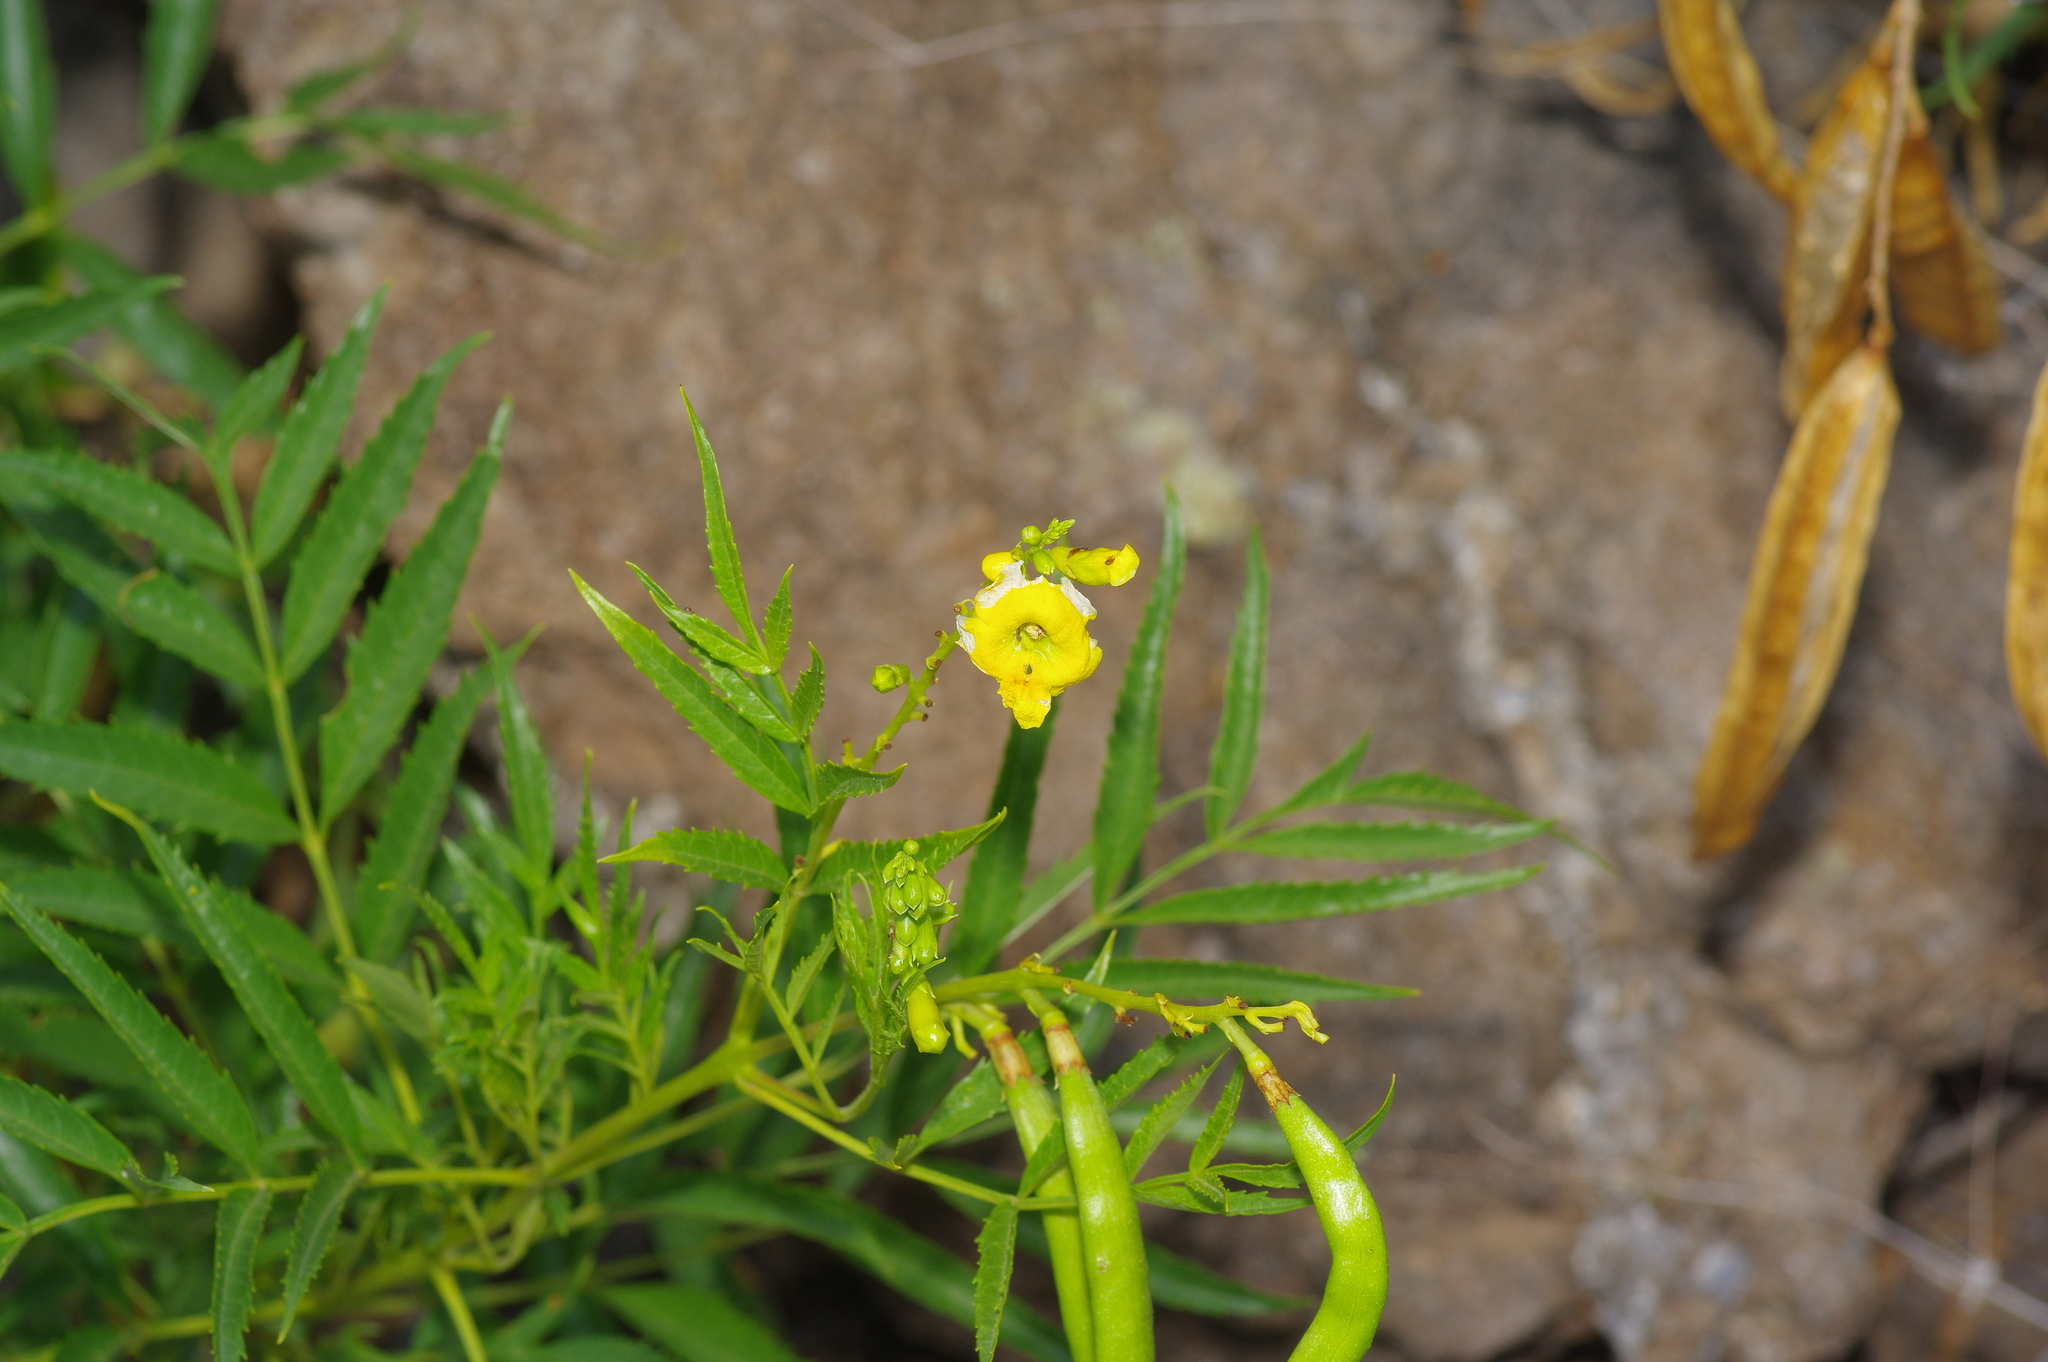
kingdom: Plantae
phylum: Tracheophyta
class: Magnoliopsida
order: Lamiales
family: Bignoniaceae
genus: Tecoma
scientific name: Tecoma stans
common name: Yellow trumpetbush
